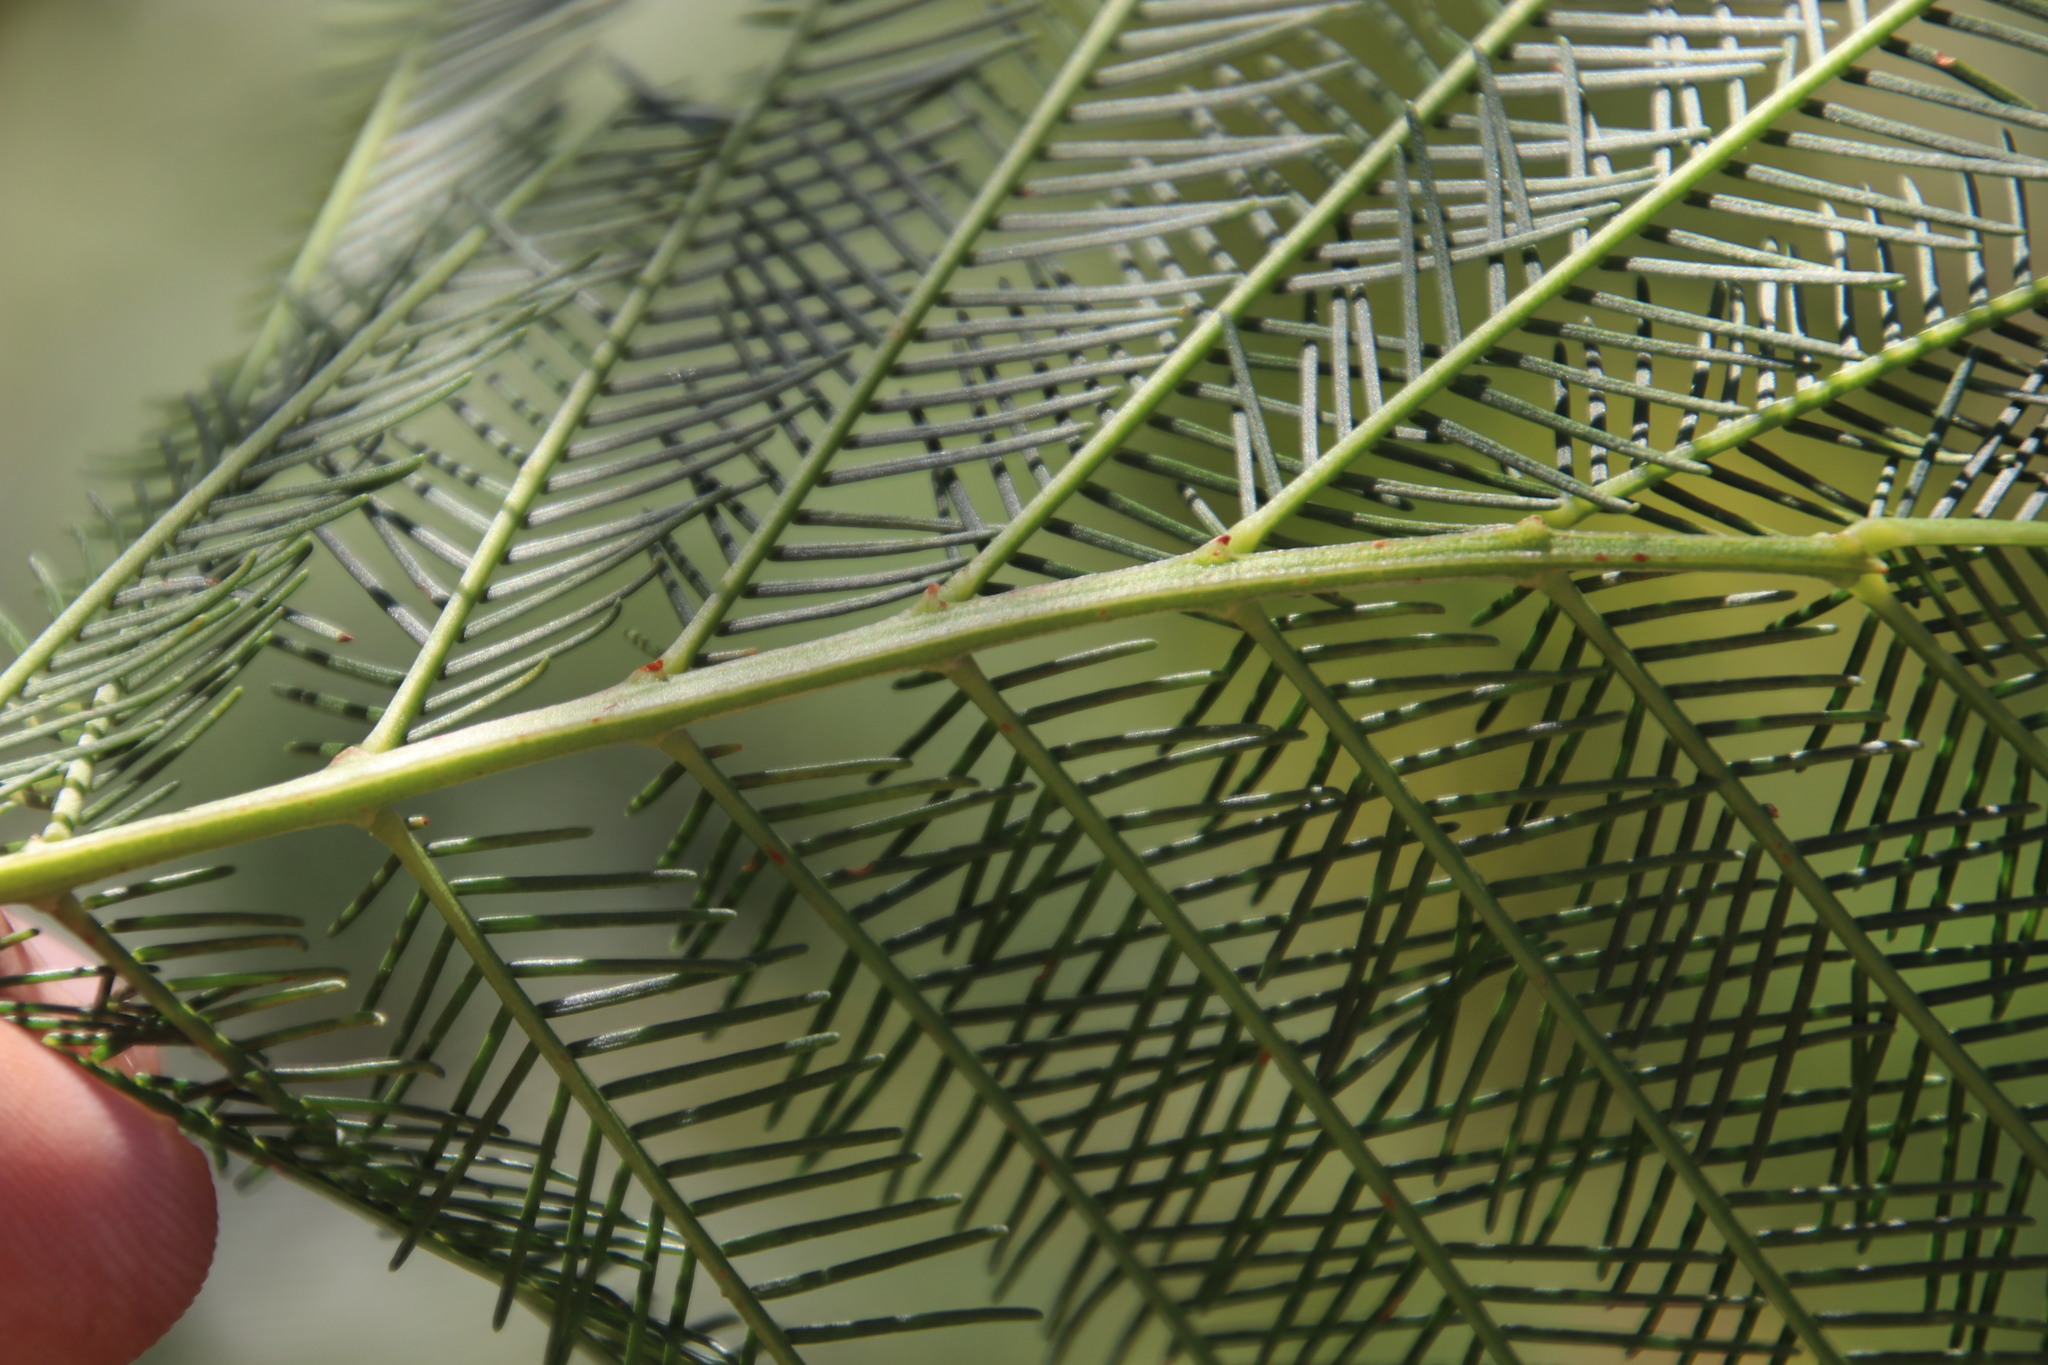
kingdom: Plantae
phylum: Tracheophyta
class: Magnoliopsida
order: Fabales
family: Fabaceae
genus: Acacia
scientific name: Acacia decurrens
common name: Green wattle
